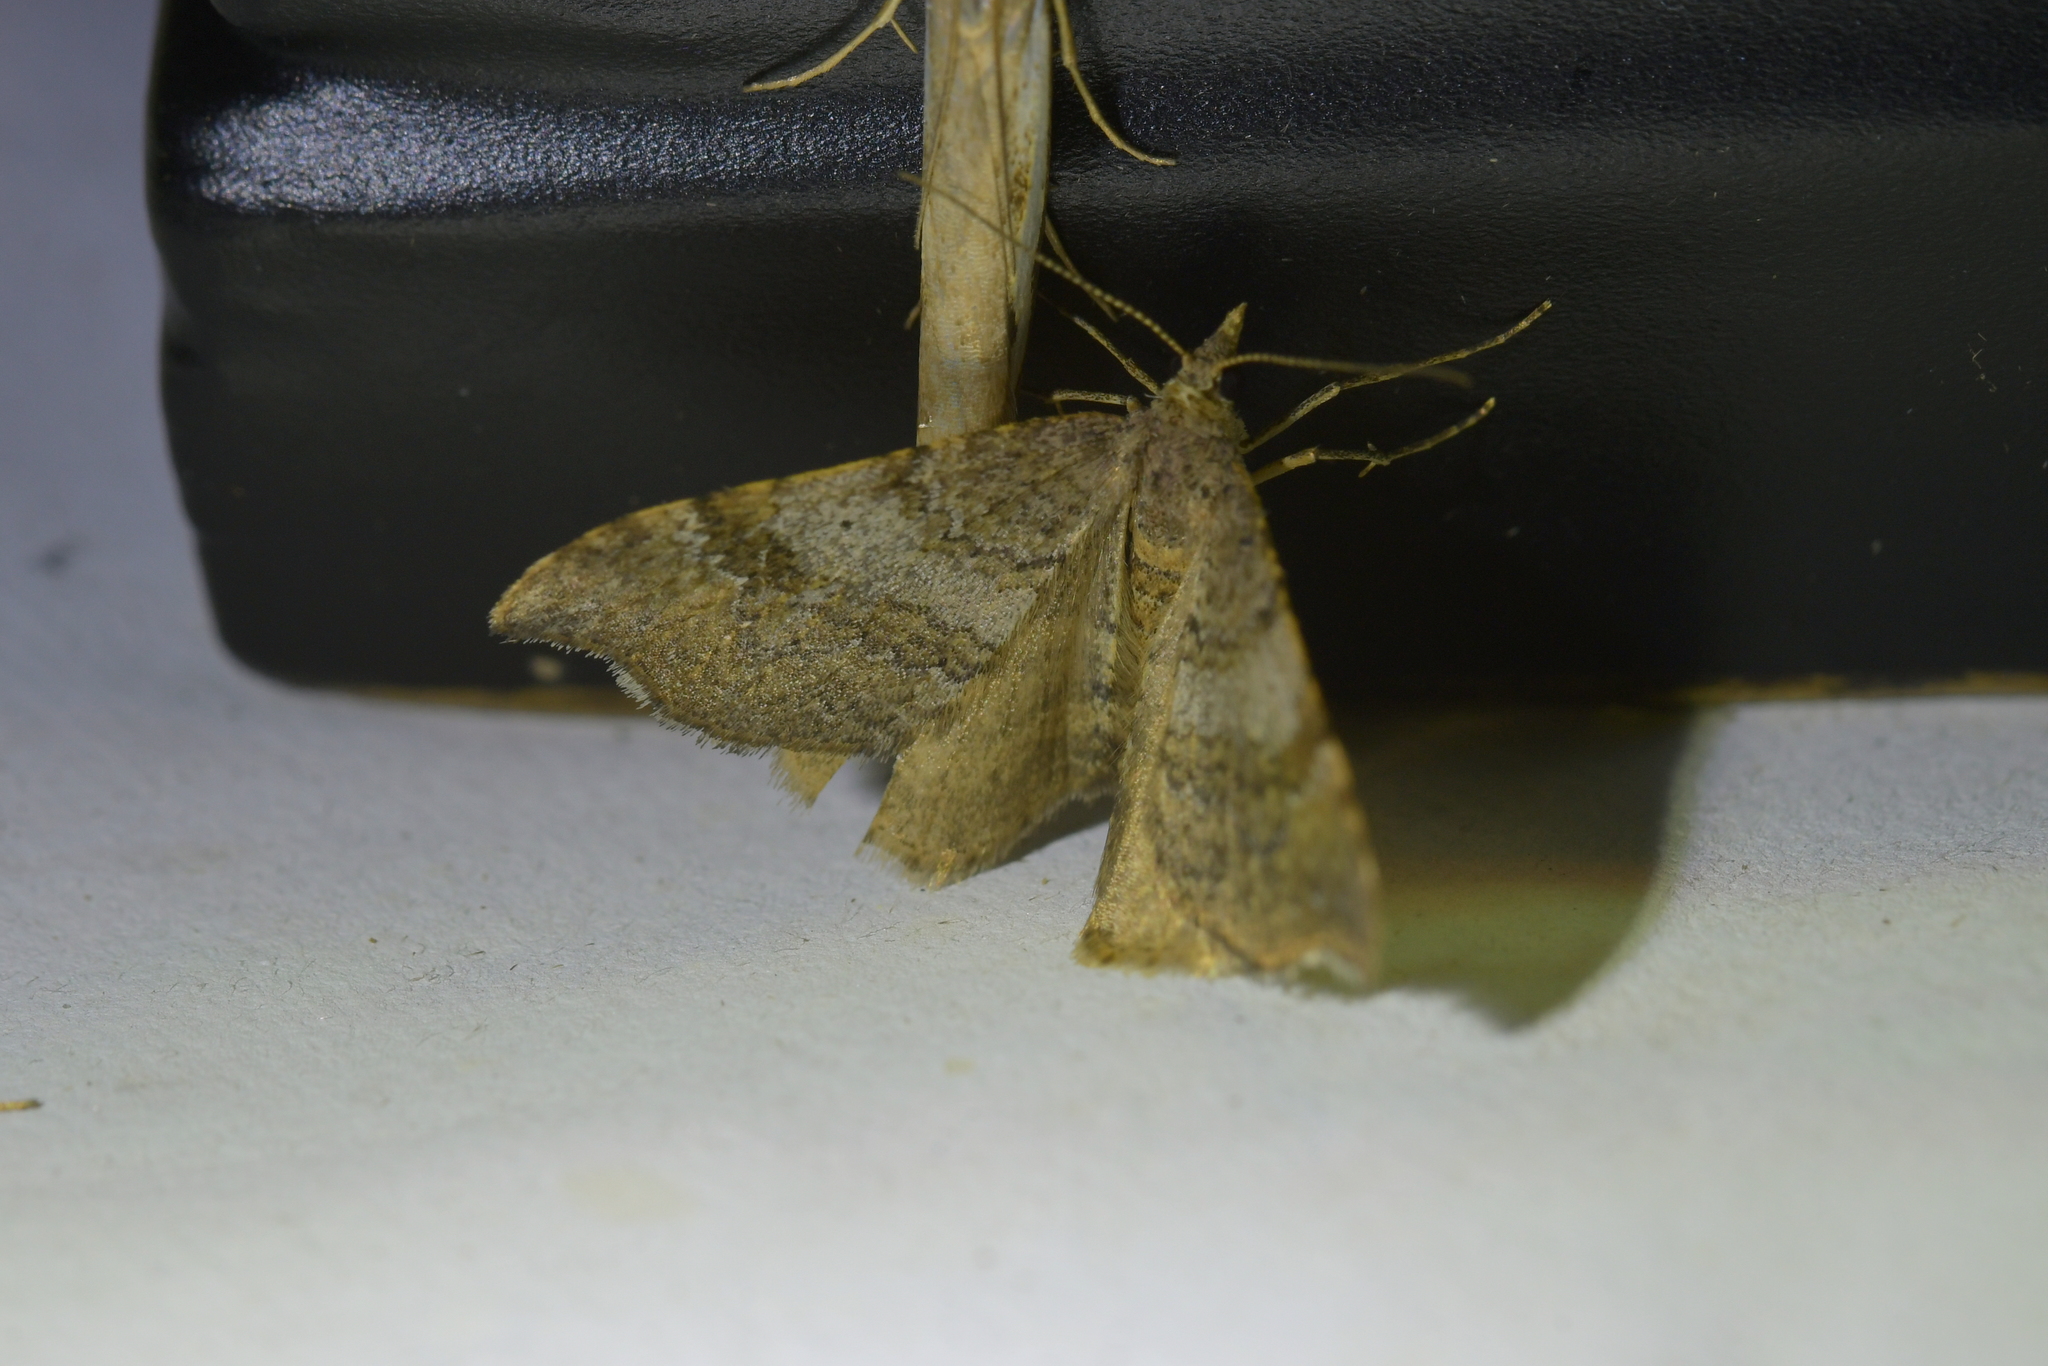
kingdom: Animalia
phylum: Arthropoda
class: Insecta
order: Lepidoptera
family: Geometridae
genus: Homodotis
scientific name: Homodotis megaspilata
